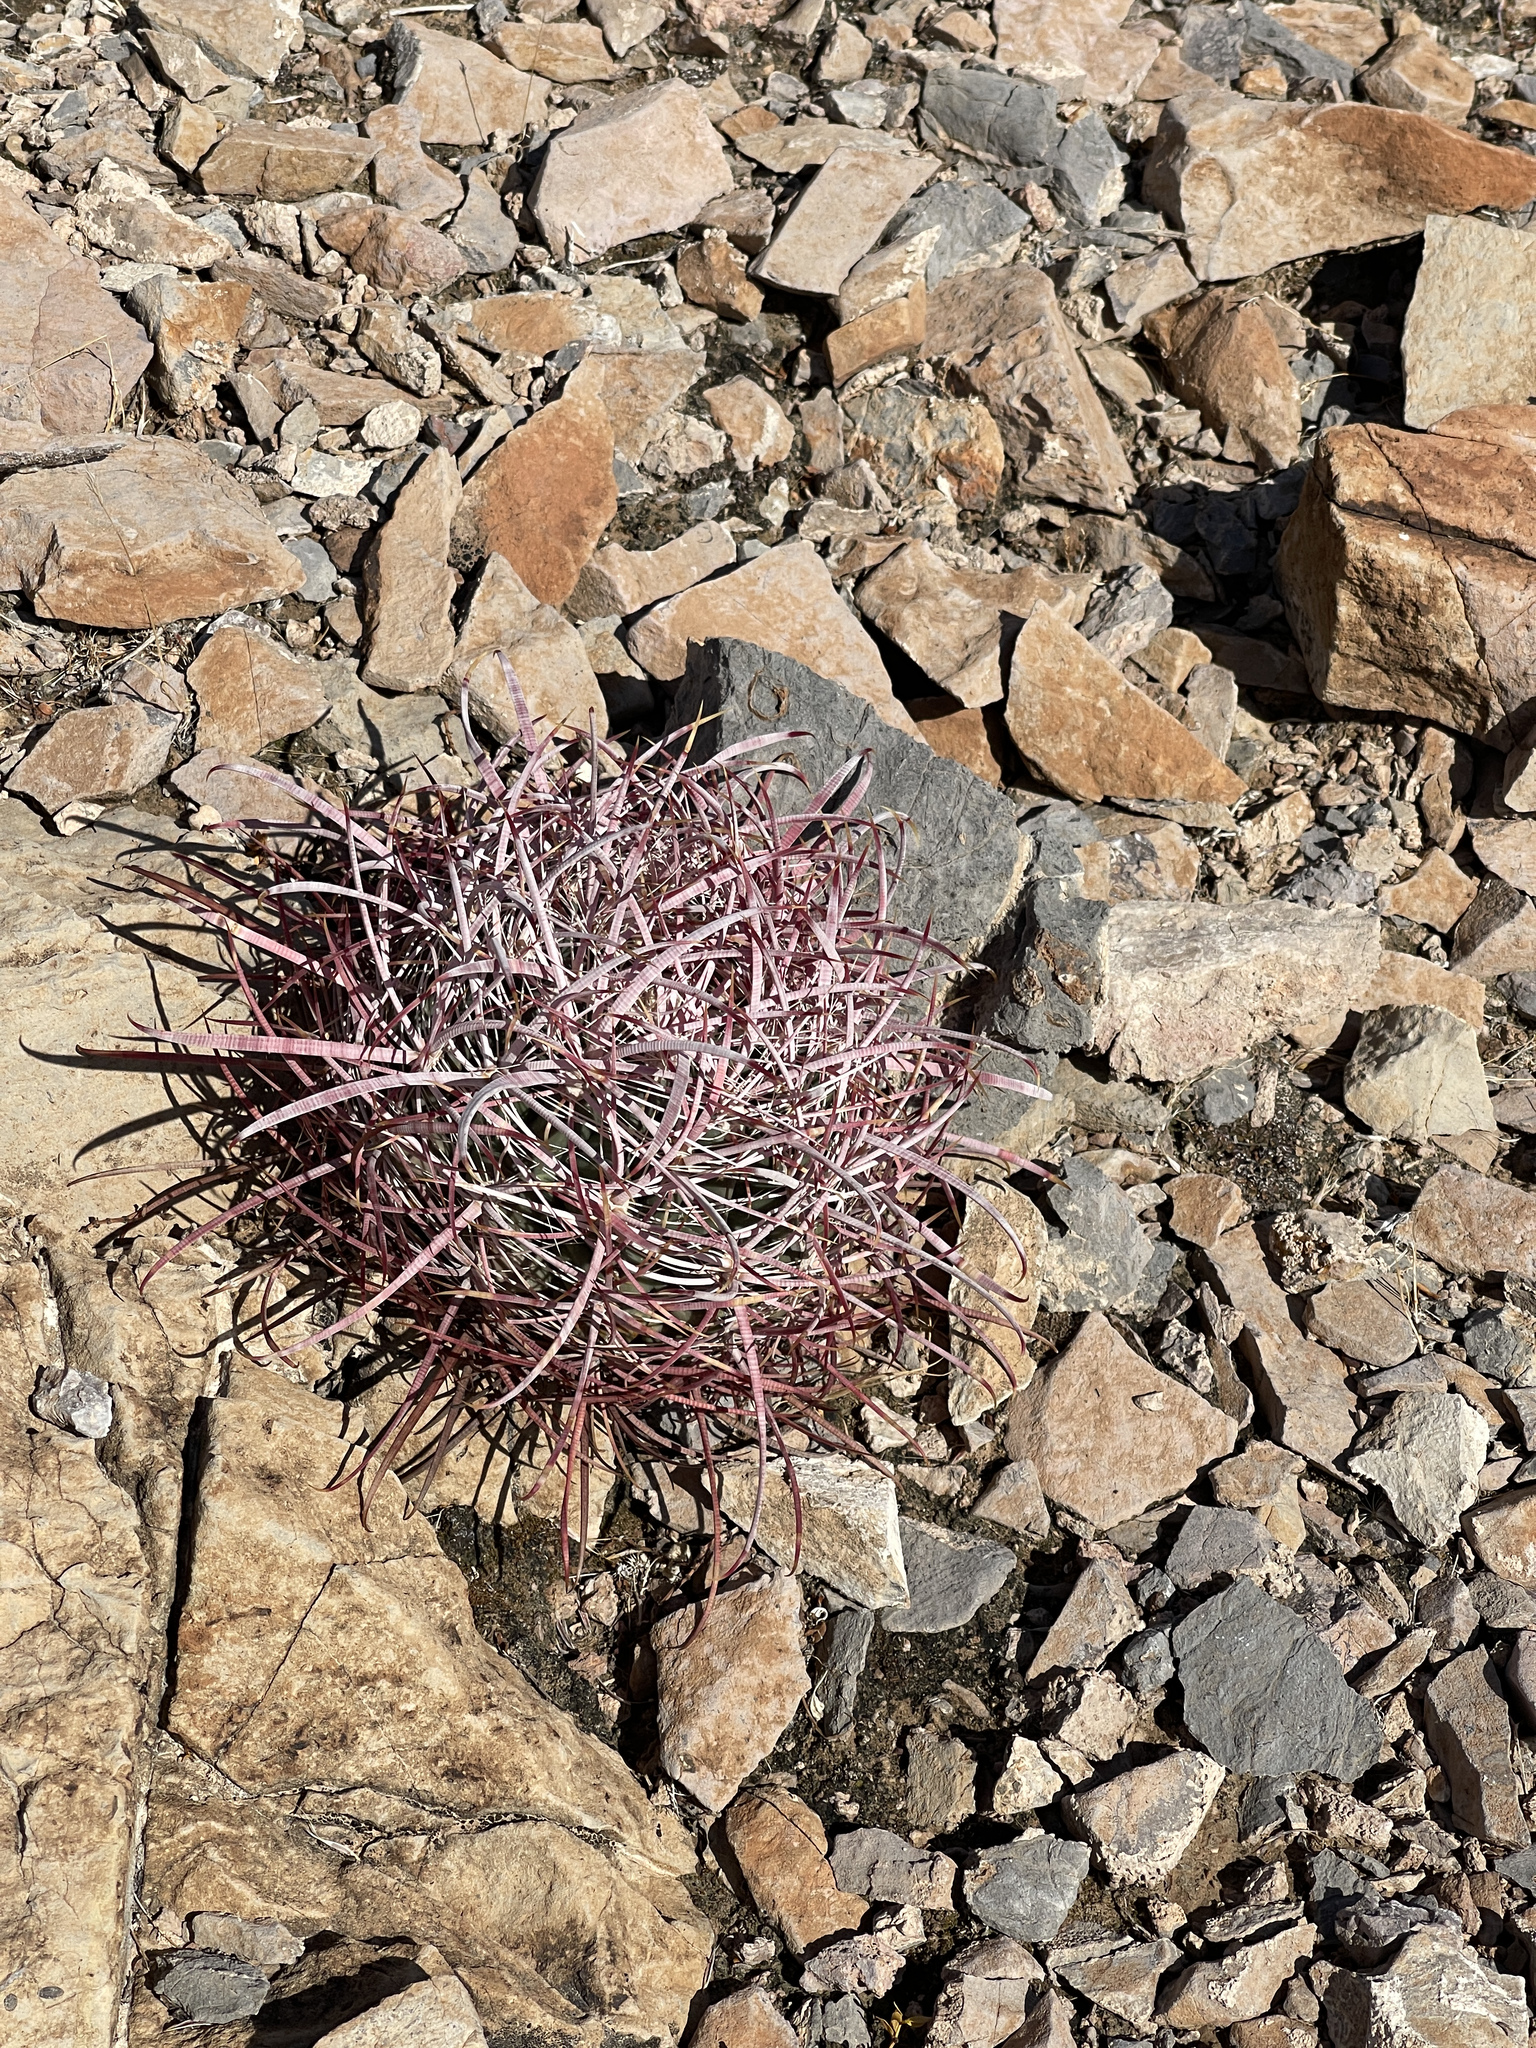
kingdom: Plantae
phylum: Tracheophyta
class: Magnoliopsida
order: Caryophyllales
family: Cactaceae
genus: Ferocactus
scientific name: Ferocactus cylindraceus
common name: California barrel cactus
